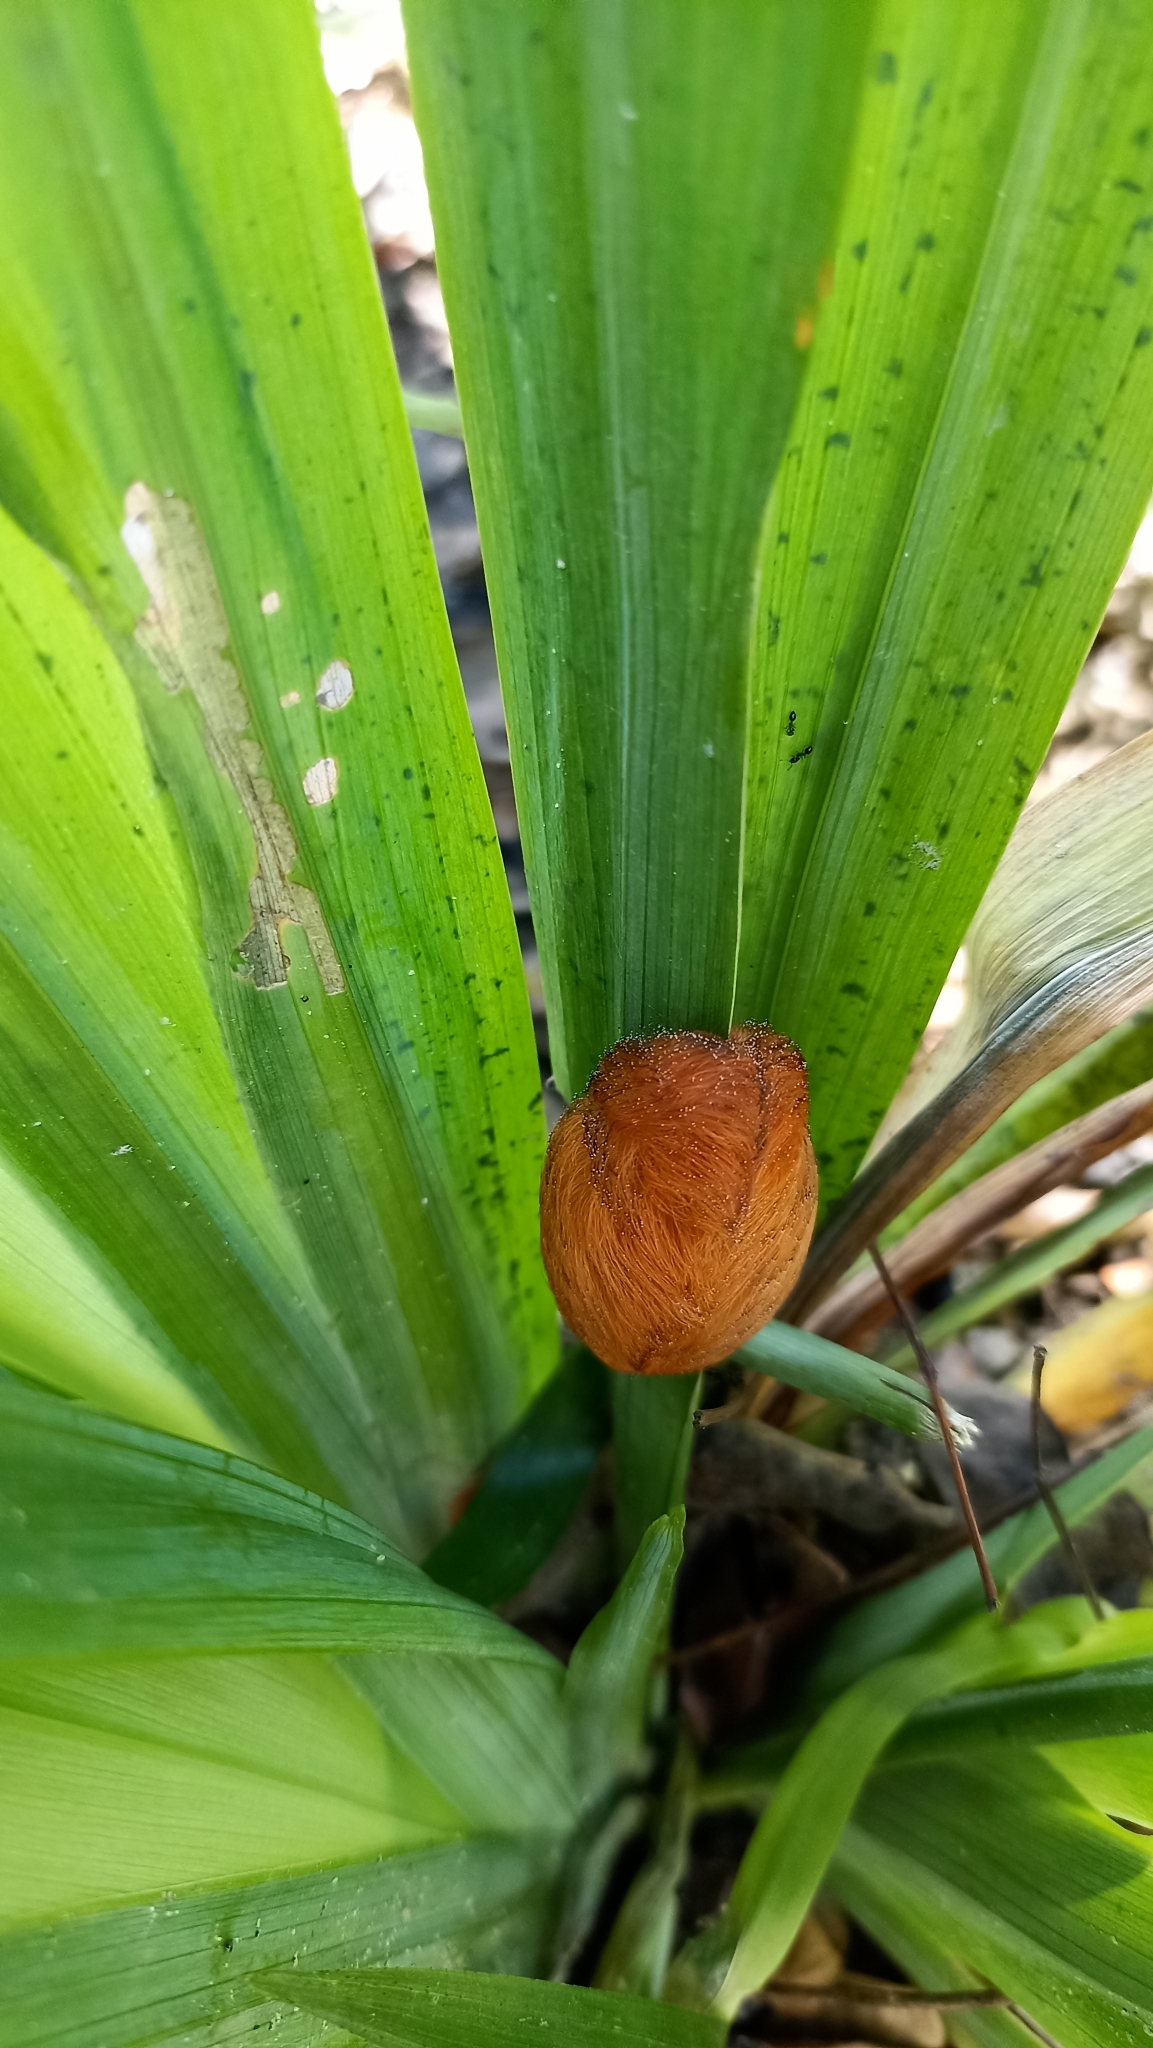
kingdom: Animalia
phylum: Arthropoda
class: Insecta
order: Lepidoptera
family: Megalopygidae
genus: Megalopyge
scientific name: Megalopyge braulio
